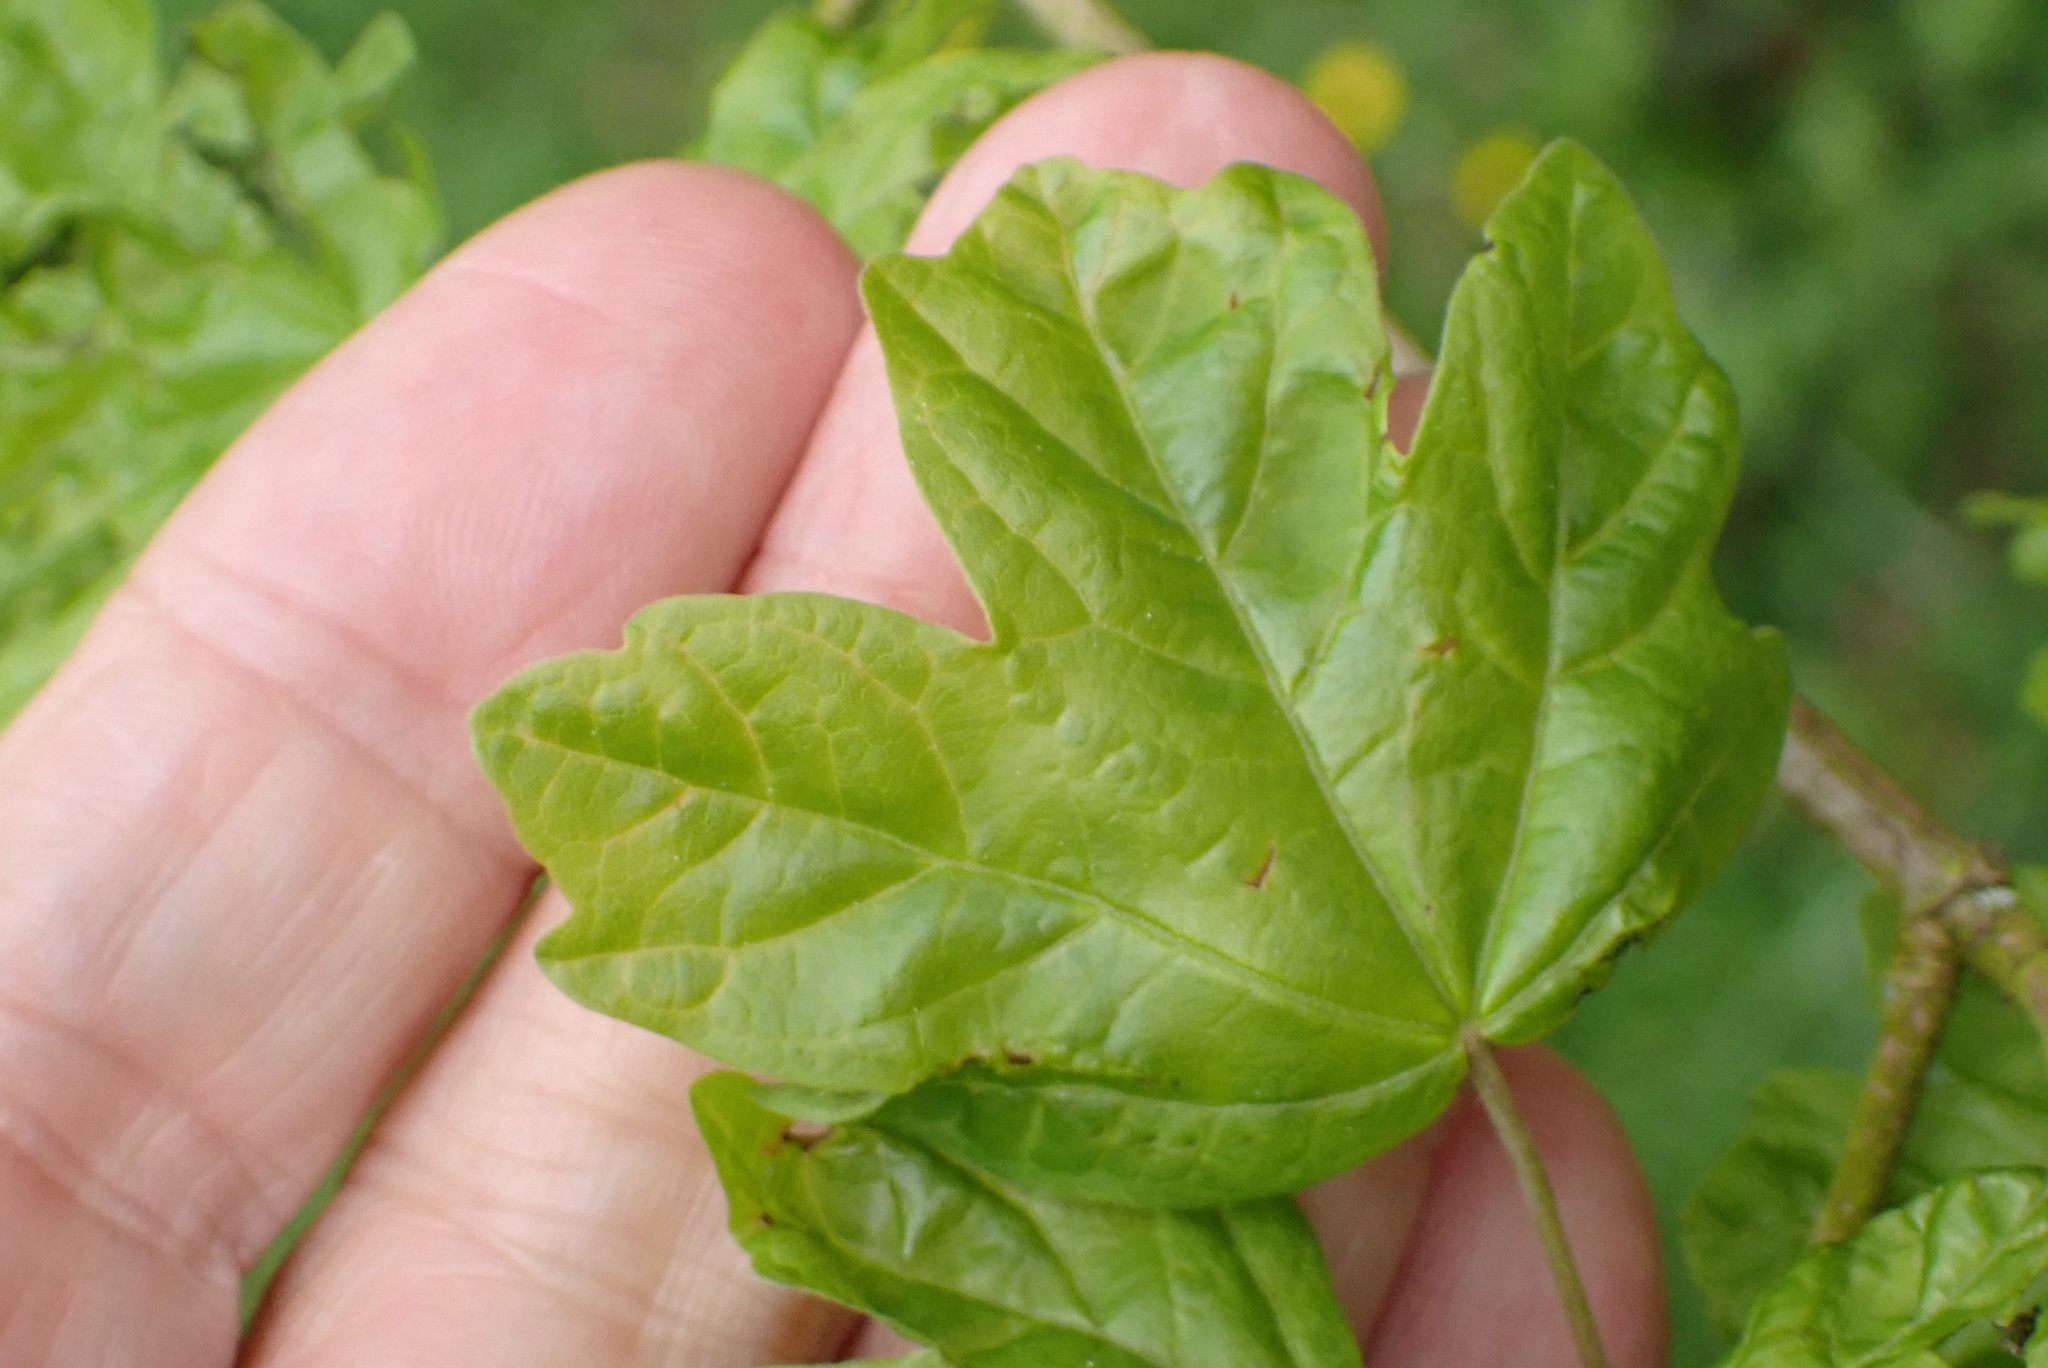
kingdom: Plantae
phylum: Tracheophyta
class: Magnoliopsida
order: Sapindales
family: Sapindaceae
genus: Acer
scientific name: Acer campestre
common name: Field maple
